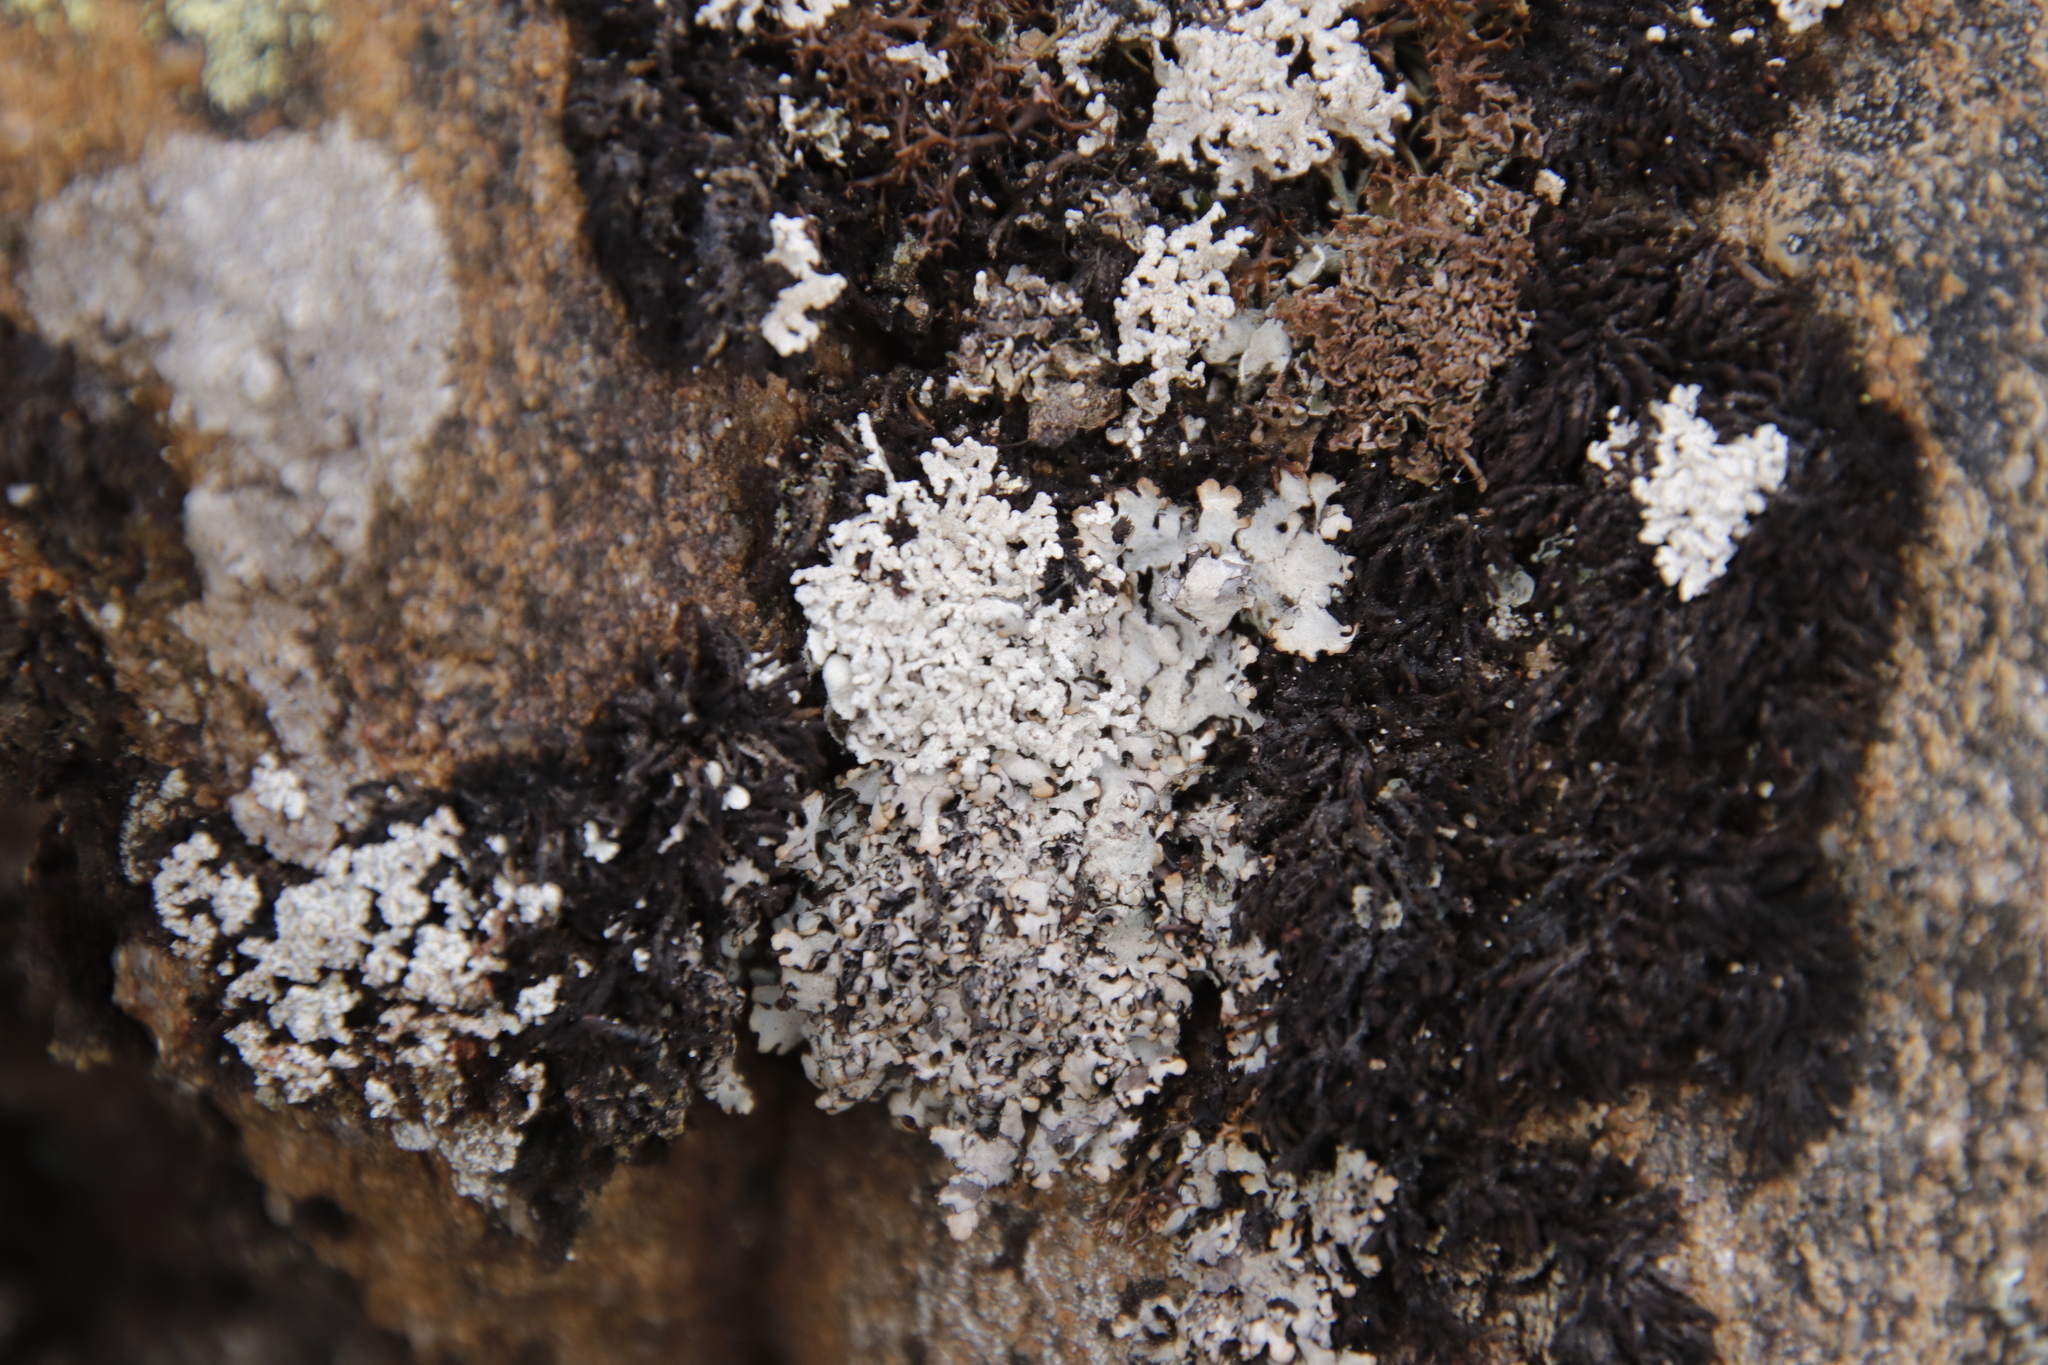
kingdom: Fungi
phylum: Ascomycota
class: Lecanoromycetes
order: Lecanorales
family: Cladoniaceae
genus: Cladia
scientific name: Cladia aggregata
